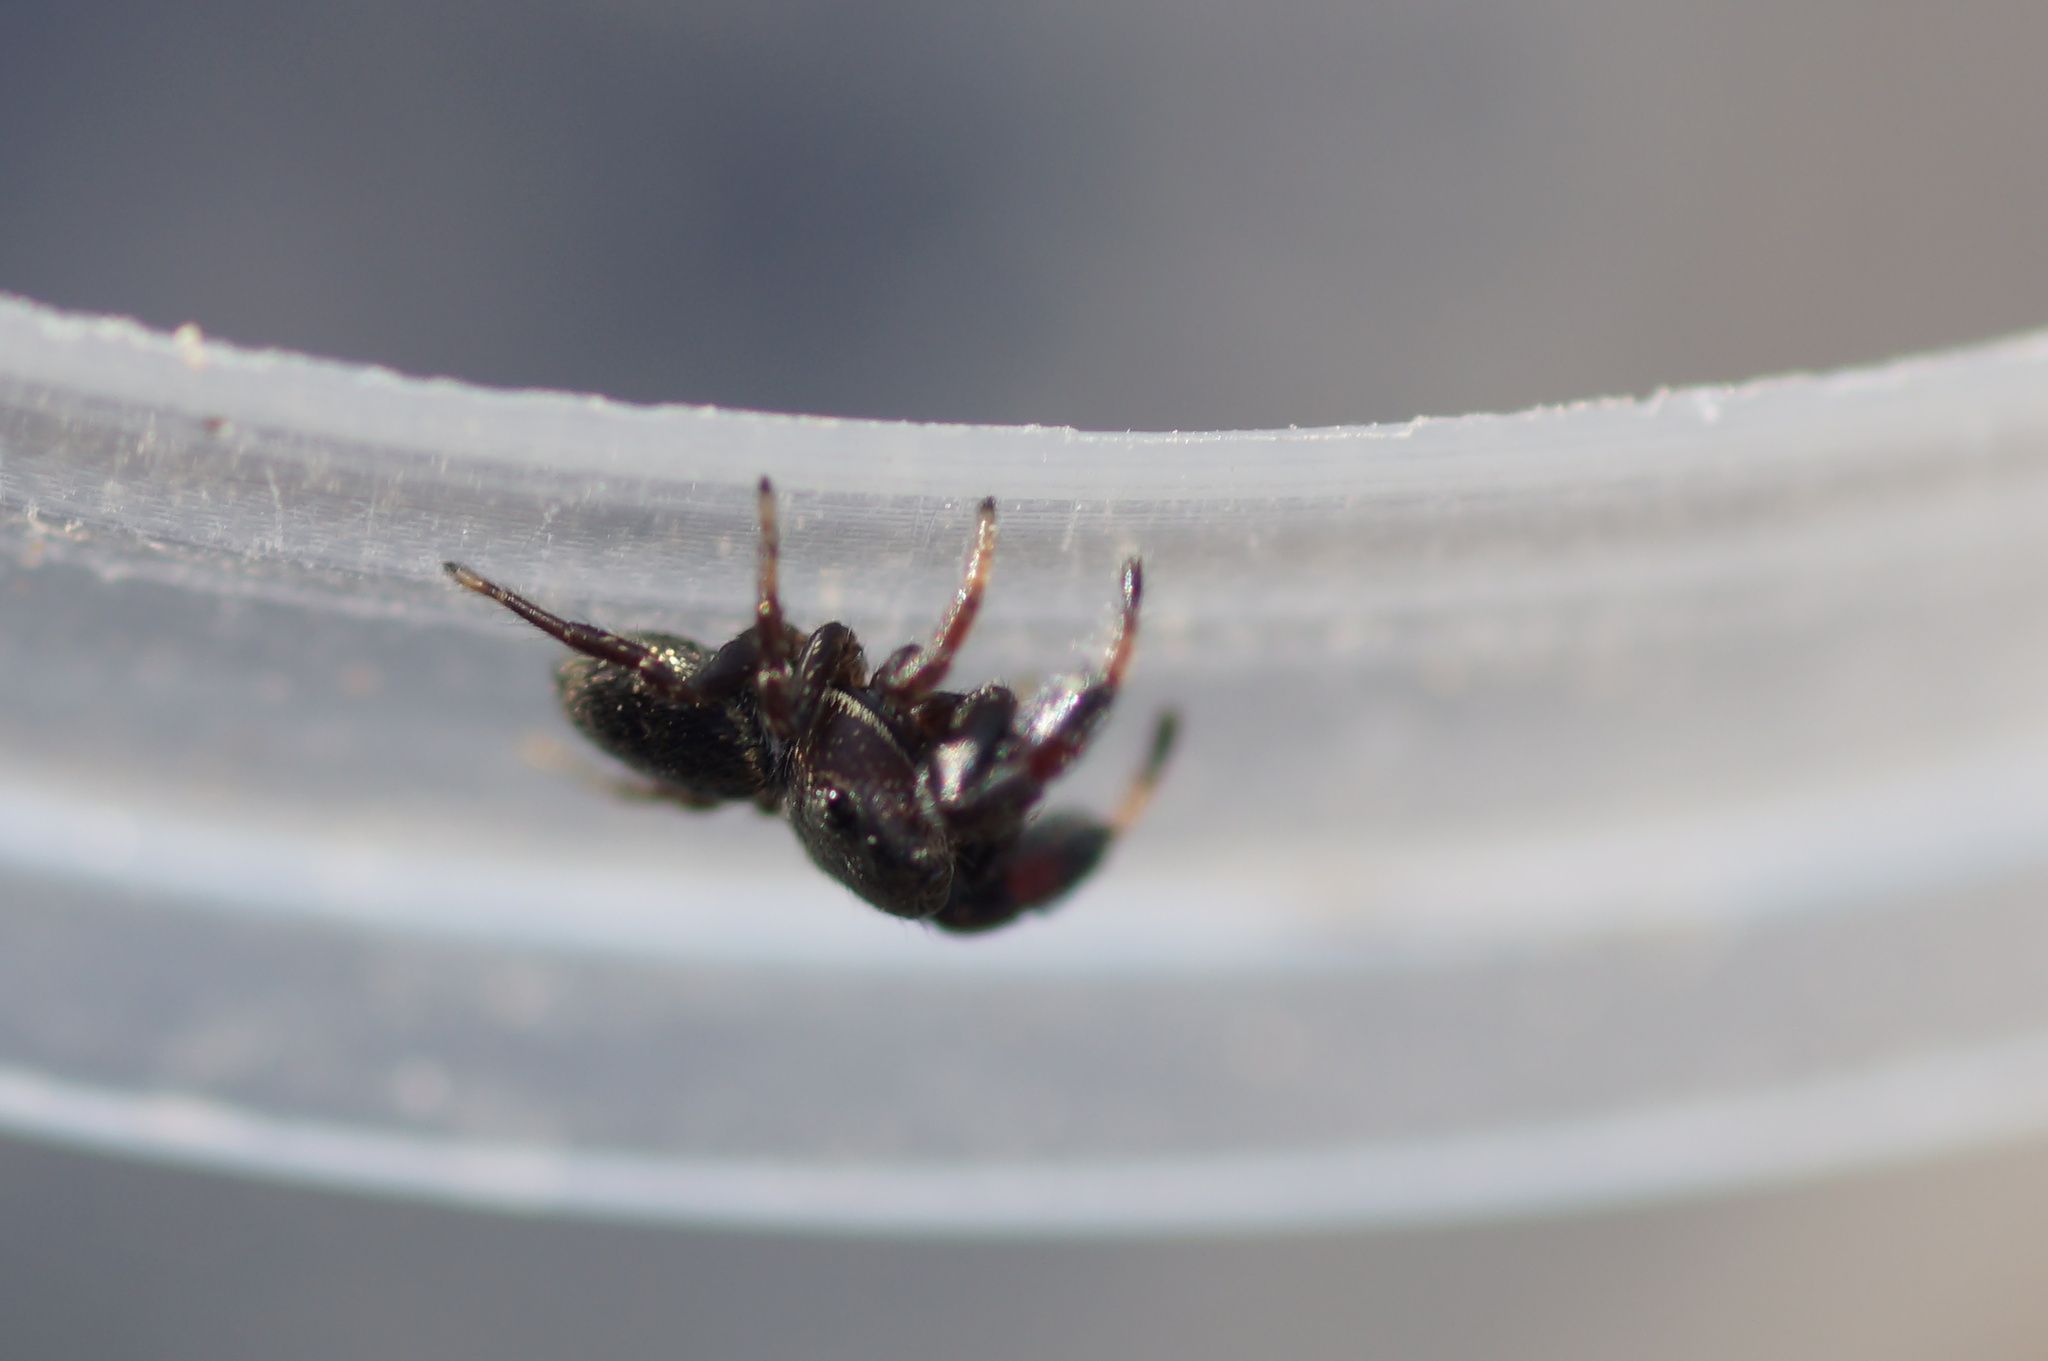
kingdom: Animalia
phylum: Arthropoda
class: Arachnida
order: Araneae
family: Salticidae
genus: Sibianor
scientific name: Sibianor aurocinctus
